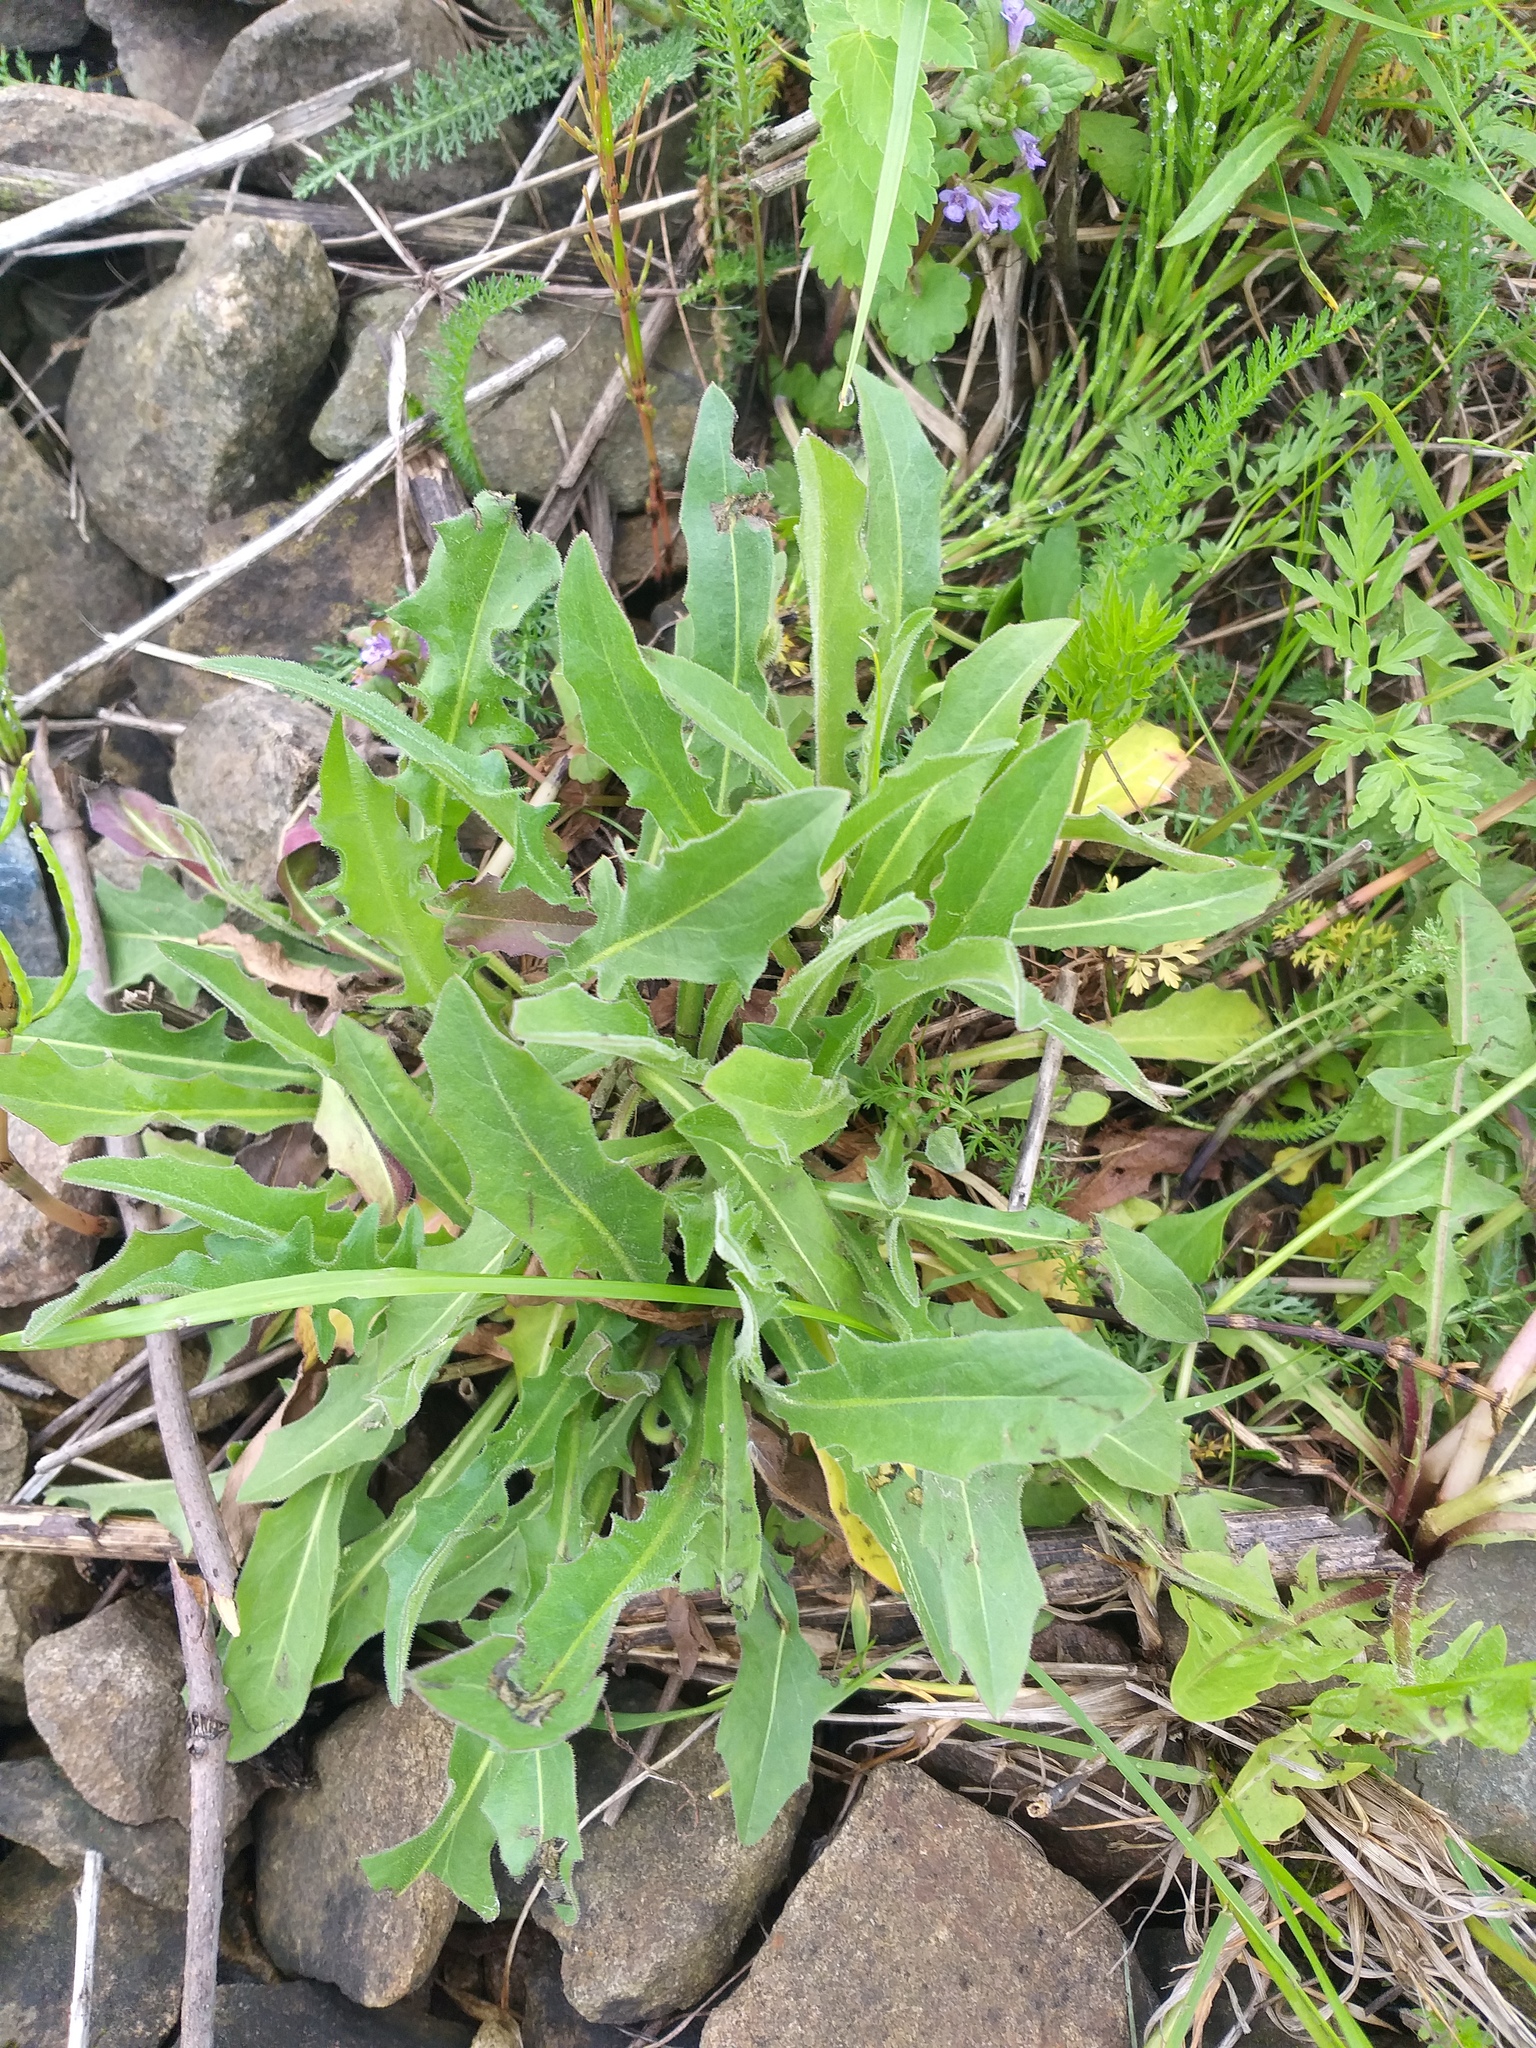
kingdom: Plantae
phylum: Tracheophyta
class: Magnoliopsida
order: Asterales
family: Asteraceae
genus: Leontodon
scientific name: Leontodon hispidus
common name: Rough hawkbit
